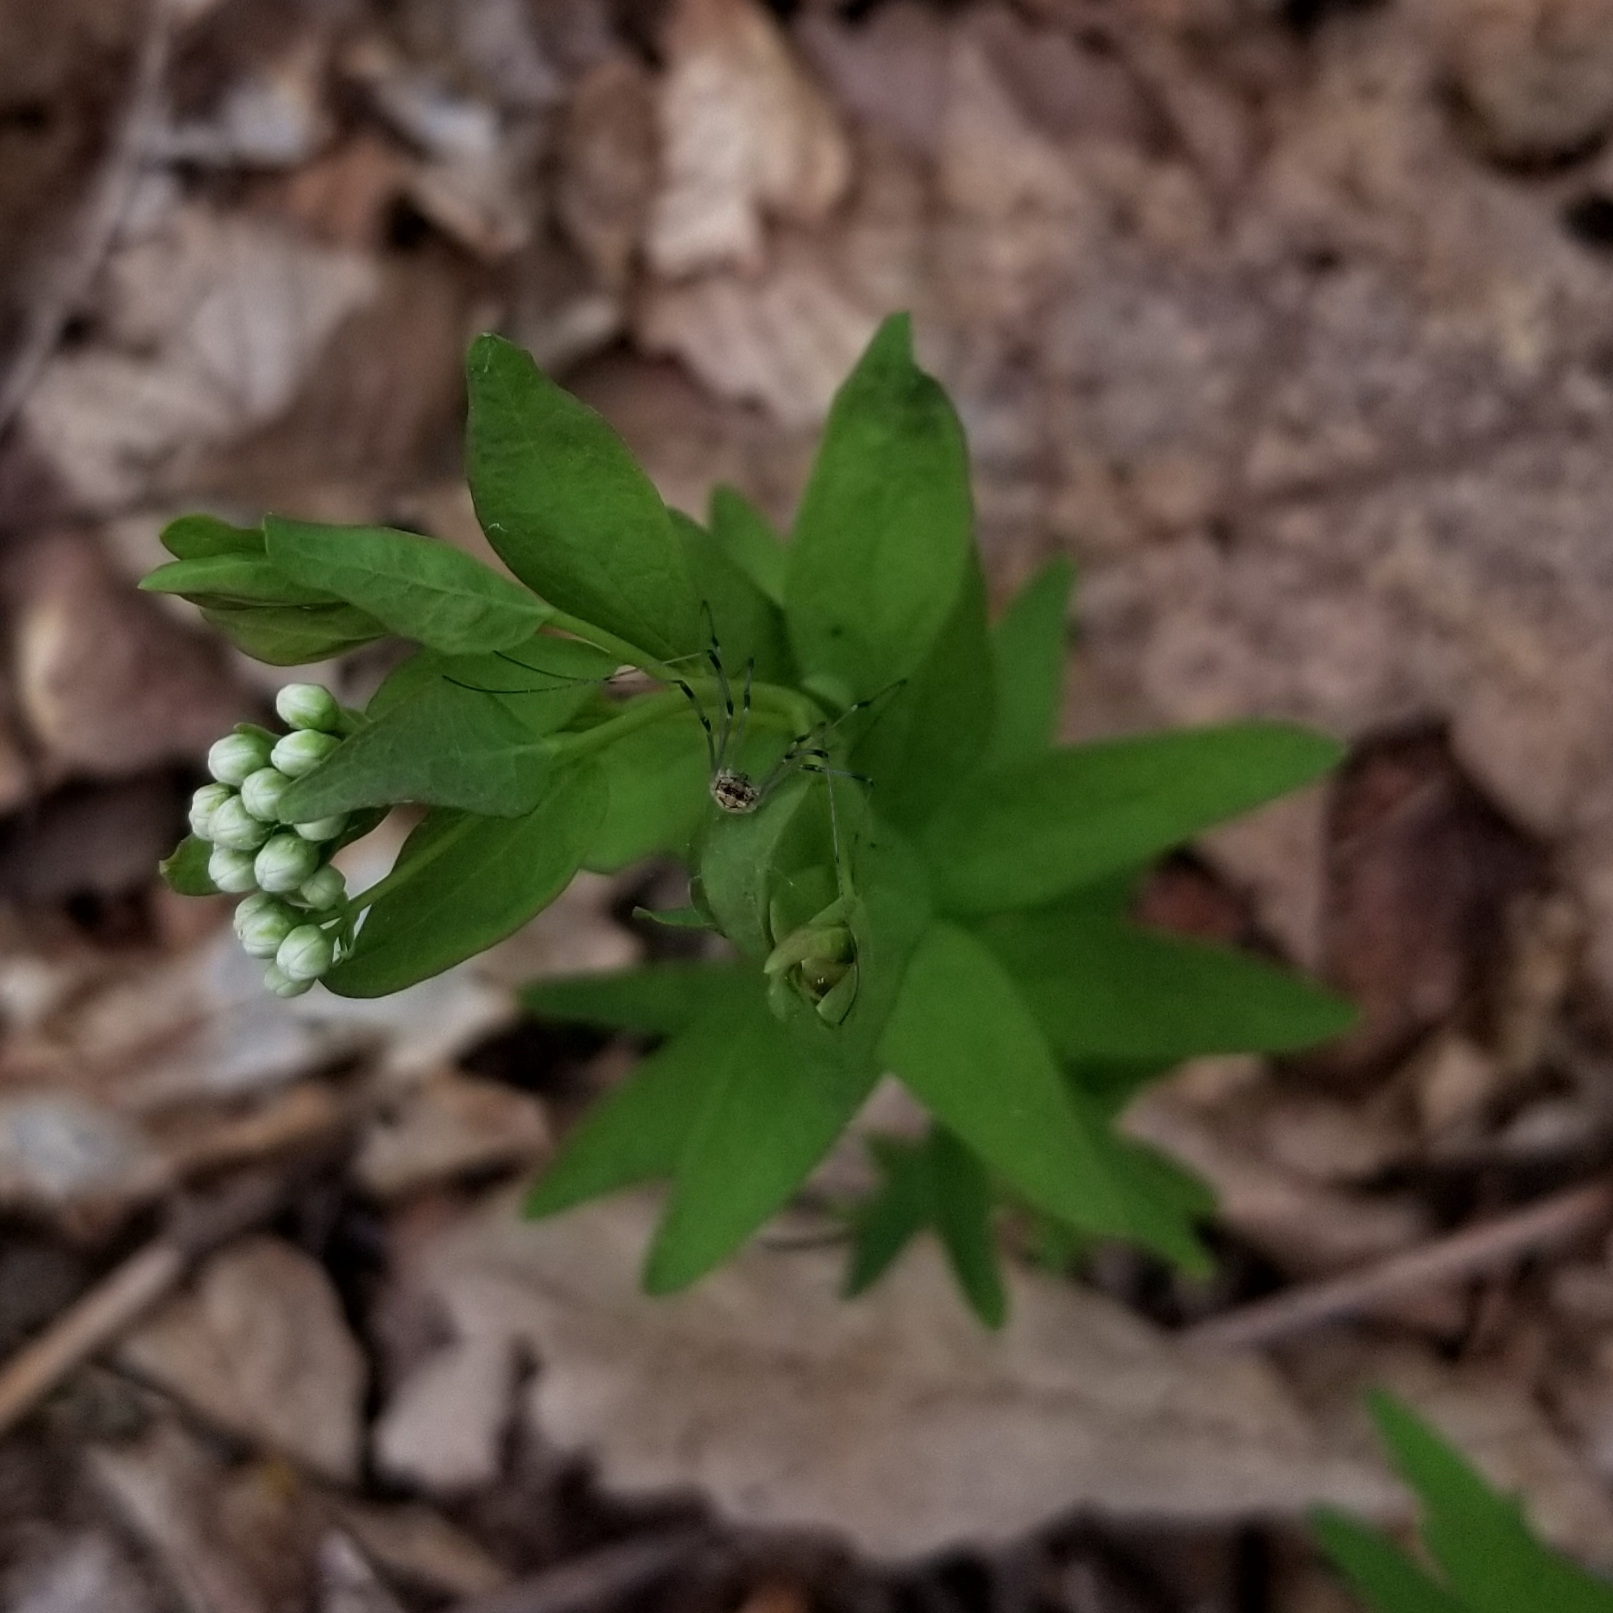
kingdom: Plantae
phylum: Tracheophyta
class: Magnoliopsida
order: Santalales
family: Comandraceae
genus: Comandra
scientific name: Comandra umbellata
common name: Bastard toadflax
